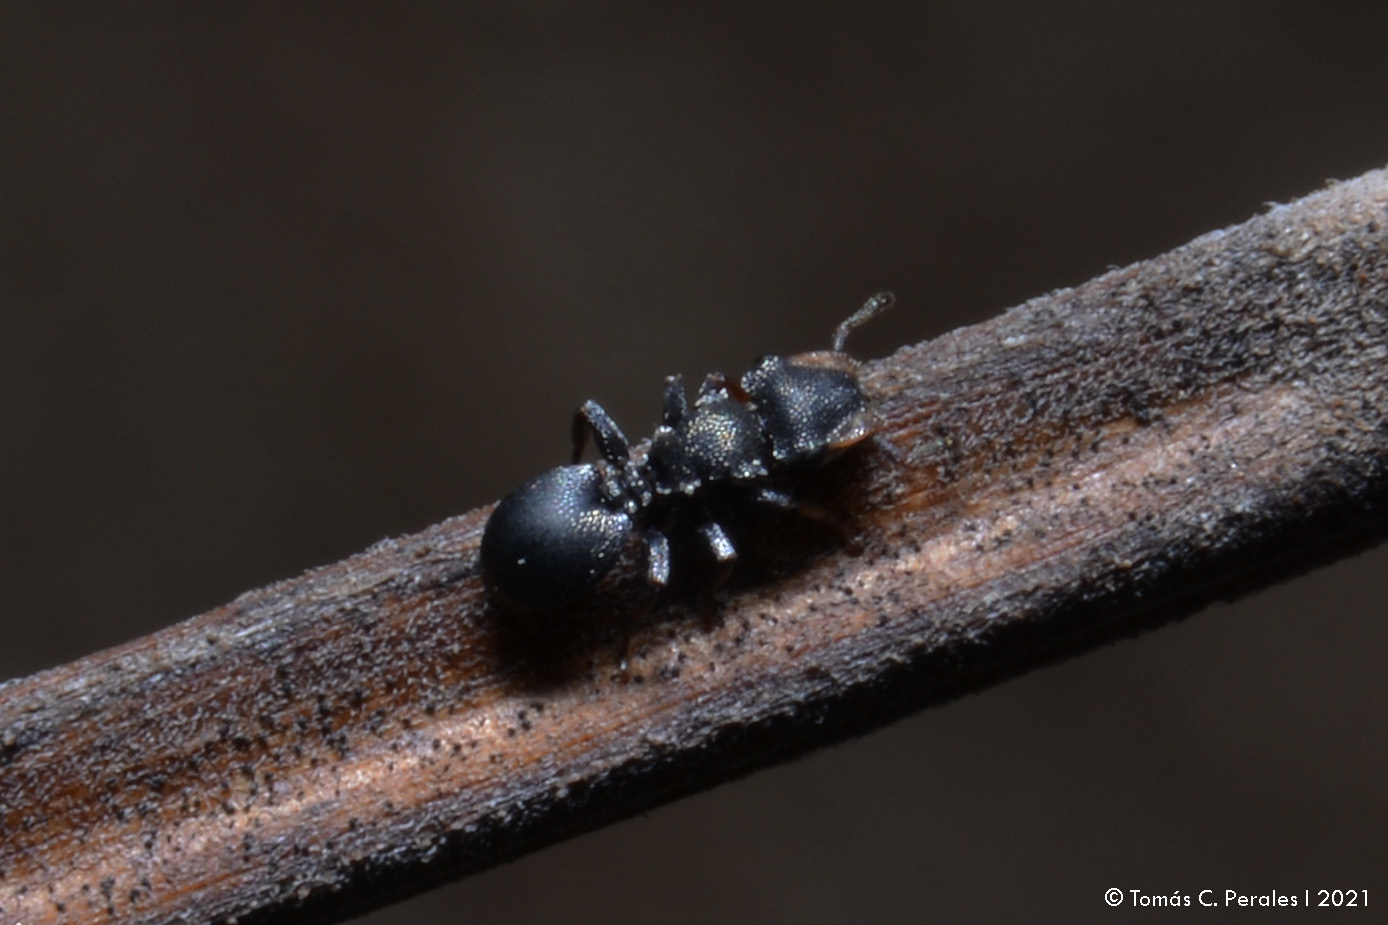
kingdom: Animalia
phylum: Arthropoda
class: Insecta
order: Hymenoptera
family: Formicidae
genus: Cephalotes
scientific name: Cephalotes jheringi
